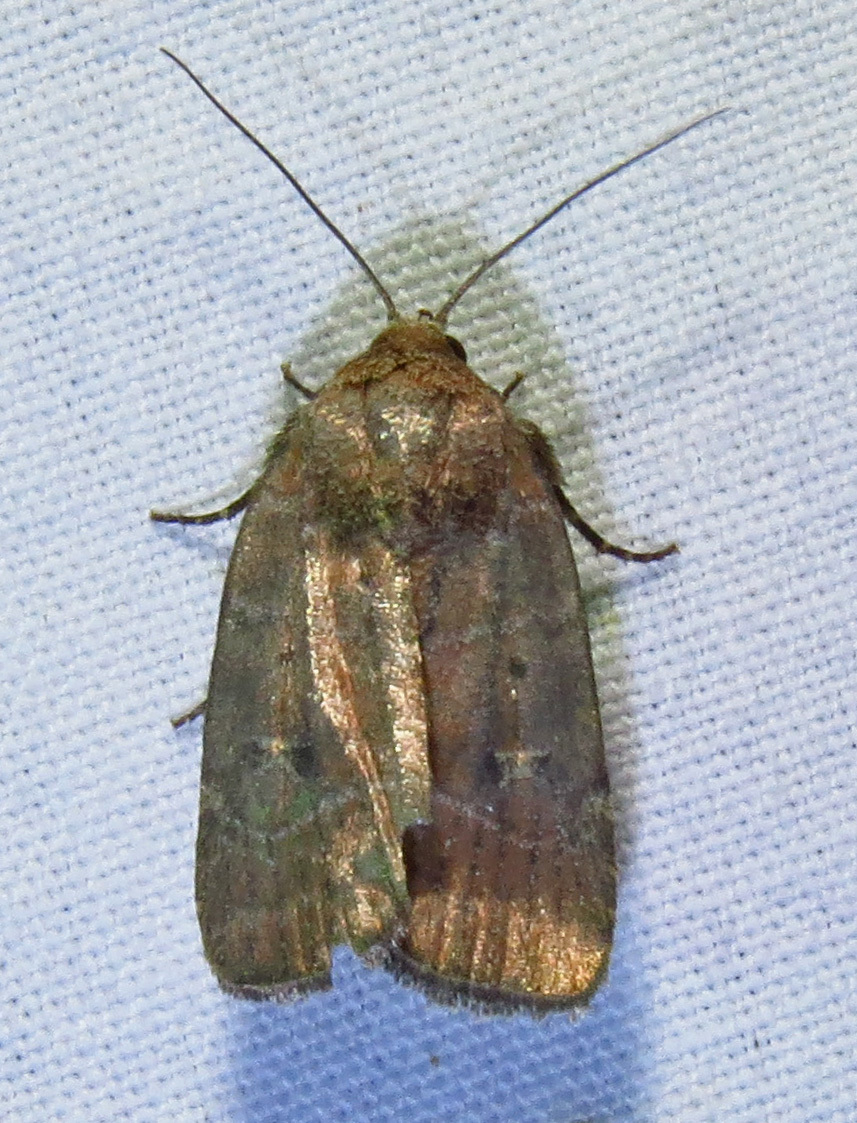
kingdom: Animalia
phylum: Arthropoda
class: Insecta
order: Lepidoptera
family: Noctuidae
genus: Elaphria
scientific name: Elaphria grata
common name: Grateful midget moth
